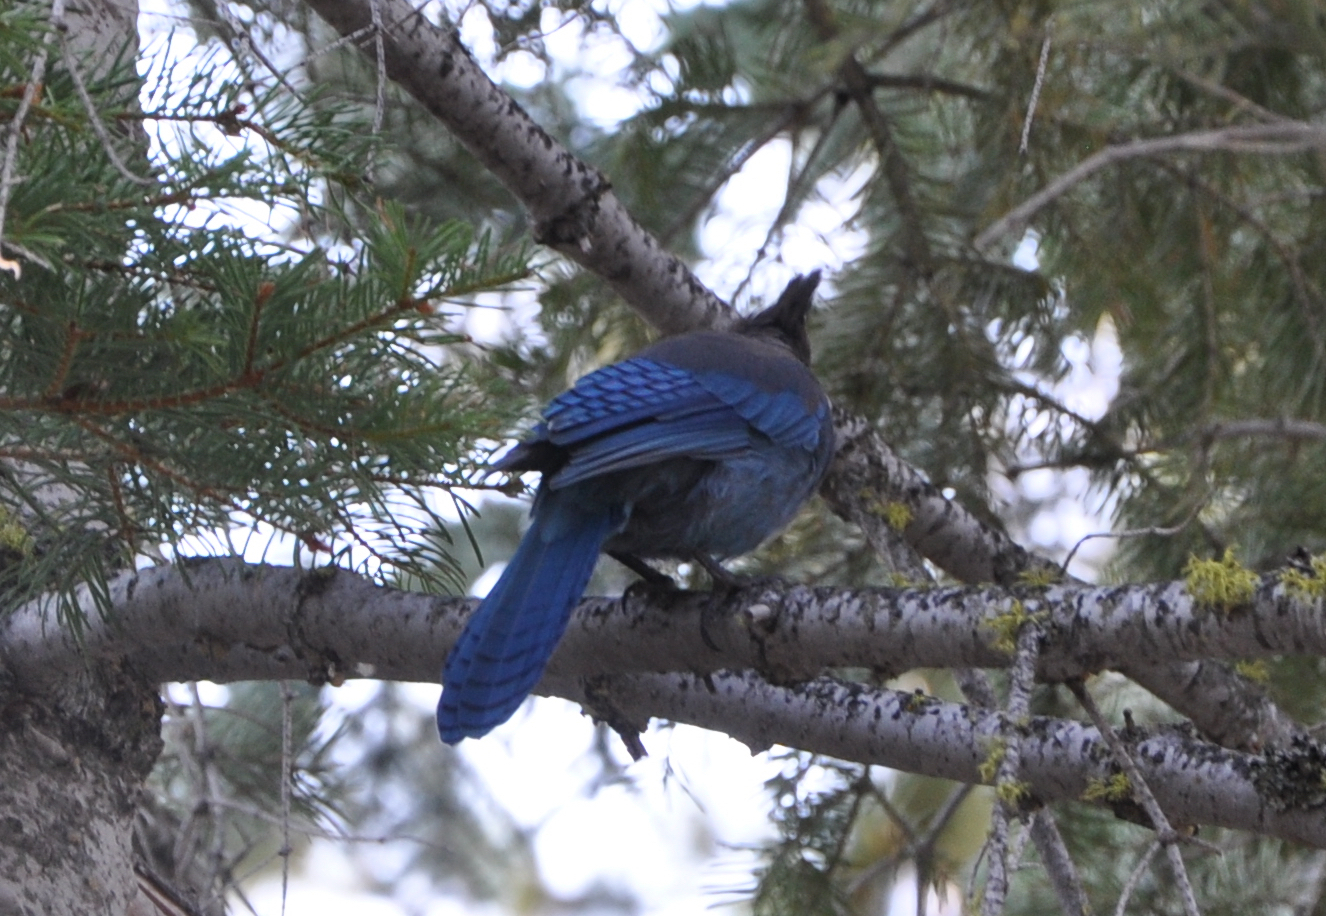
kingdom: Animalia
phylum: Chordata
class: Aves
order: Passeriformes
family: Corvidae
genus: Cyanocitta
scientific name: Cyanocitta stelleri
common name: Steller's jay
